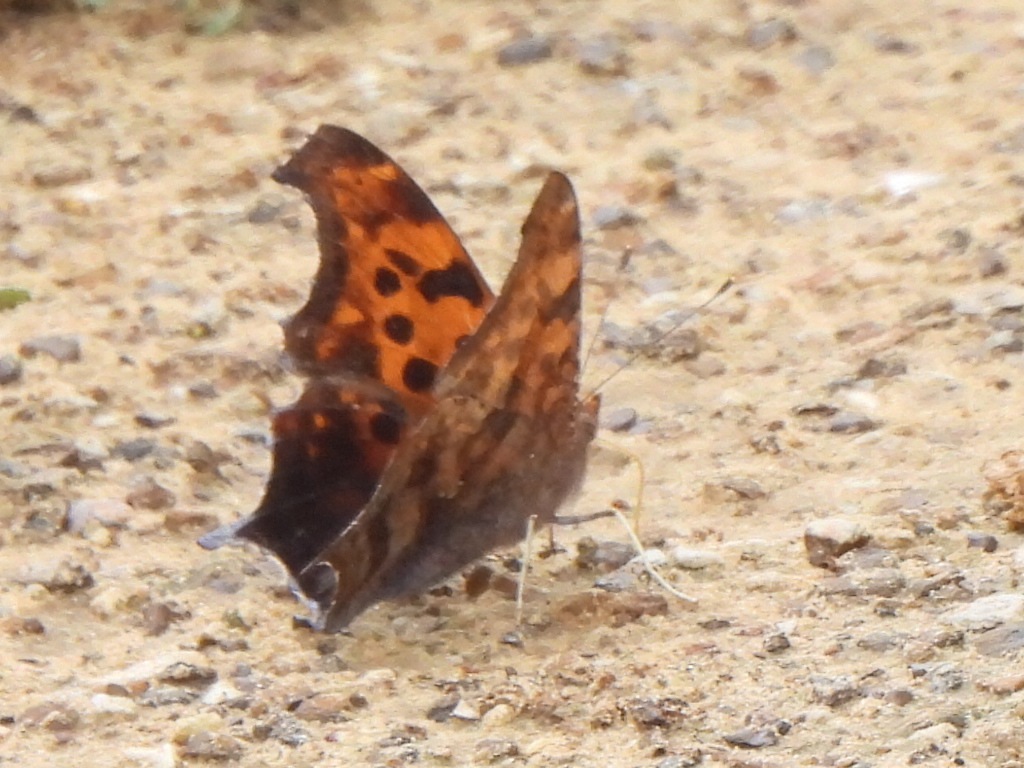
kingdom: Animalia
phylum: Arthropoda
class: Insecta
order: Lepidoptera
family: Nymphalidae
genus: Polygonia
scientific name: Polygonia interrogationis
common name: Question mark
